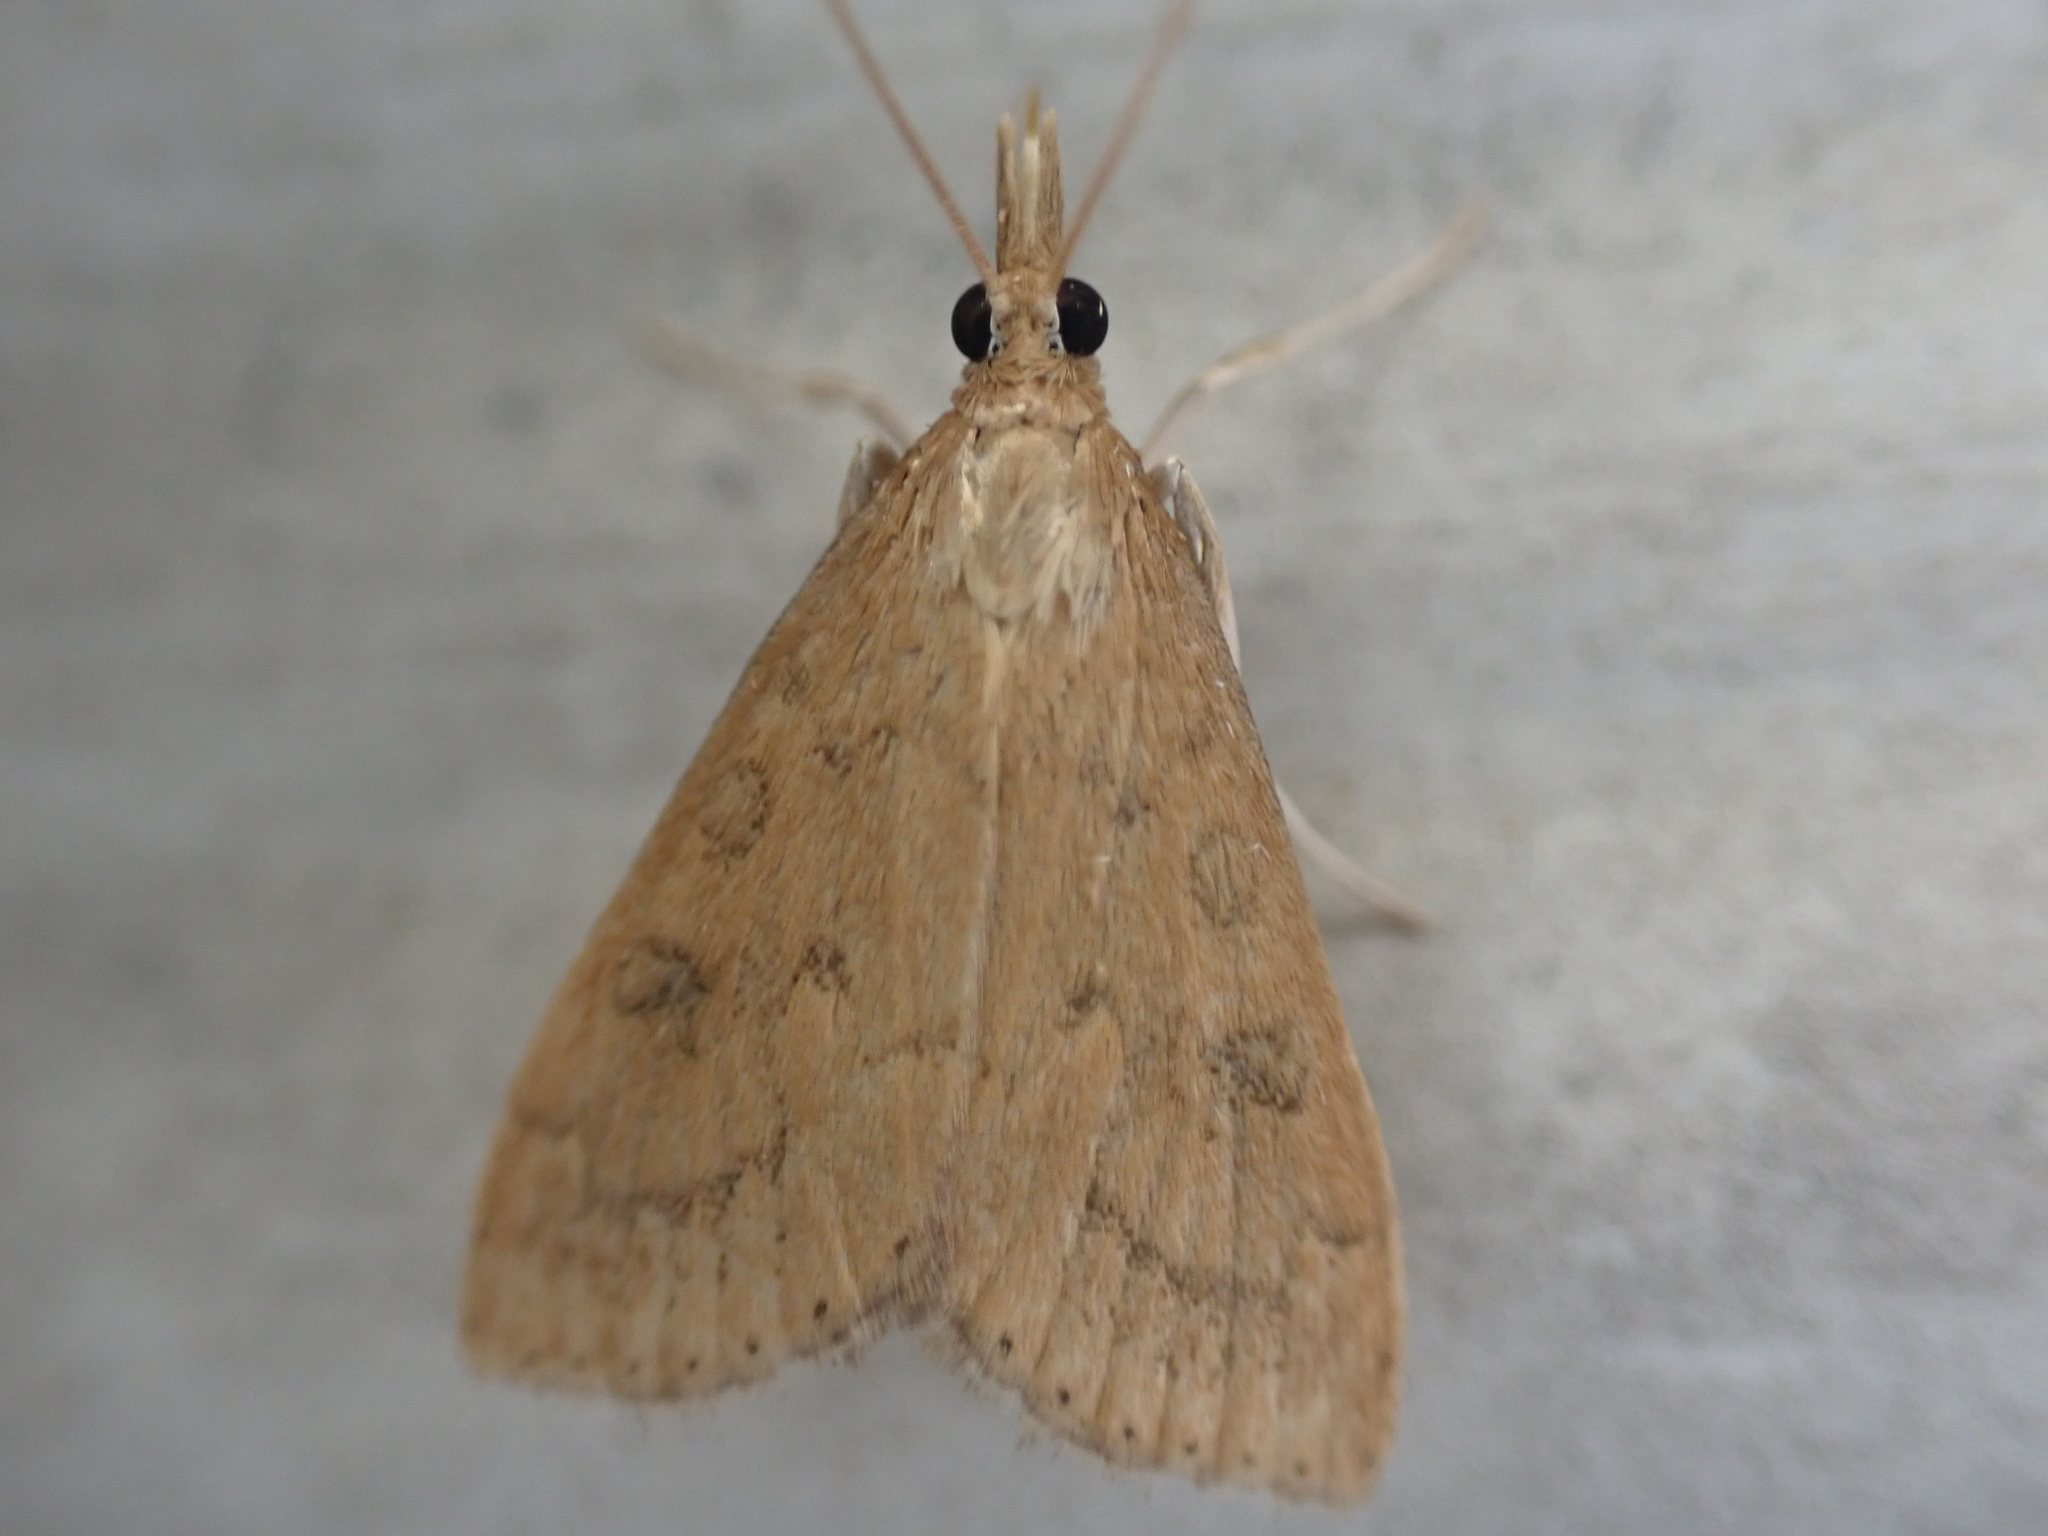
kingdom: Animalia
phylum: Arthropoda
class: Insecta
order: Lepidoptera
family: Crambidae
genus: Udea
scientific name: Udea rubigalis
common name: Celery leaftier moth
